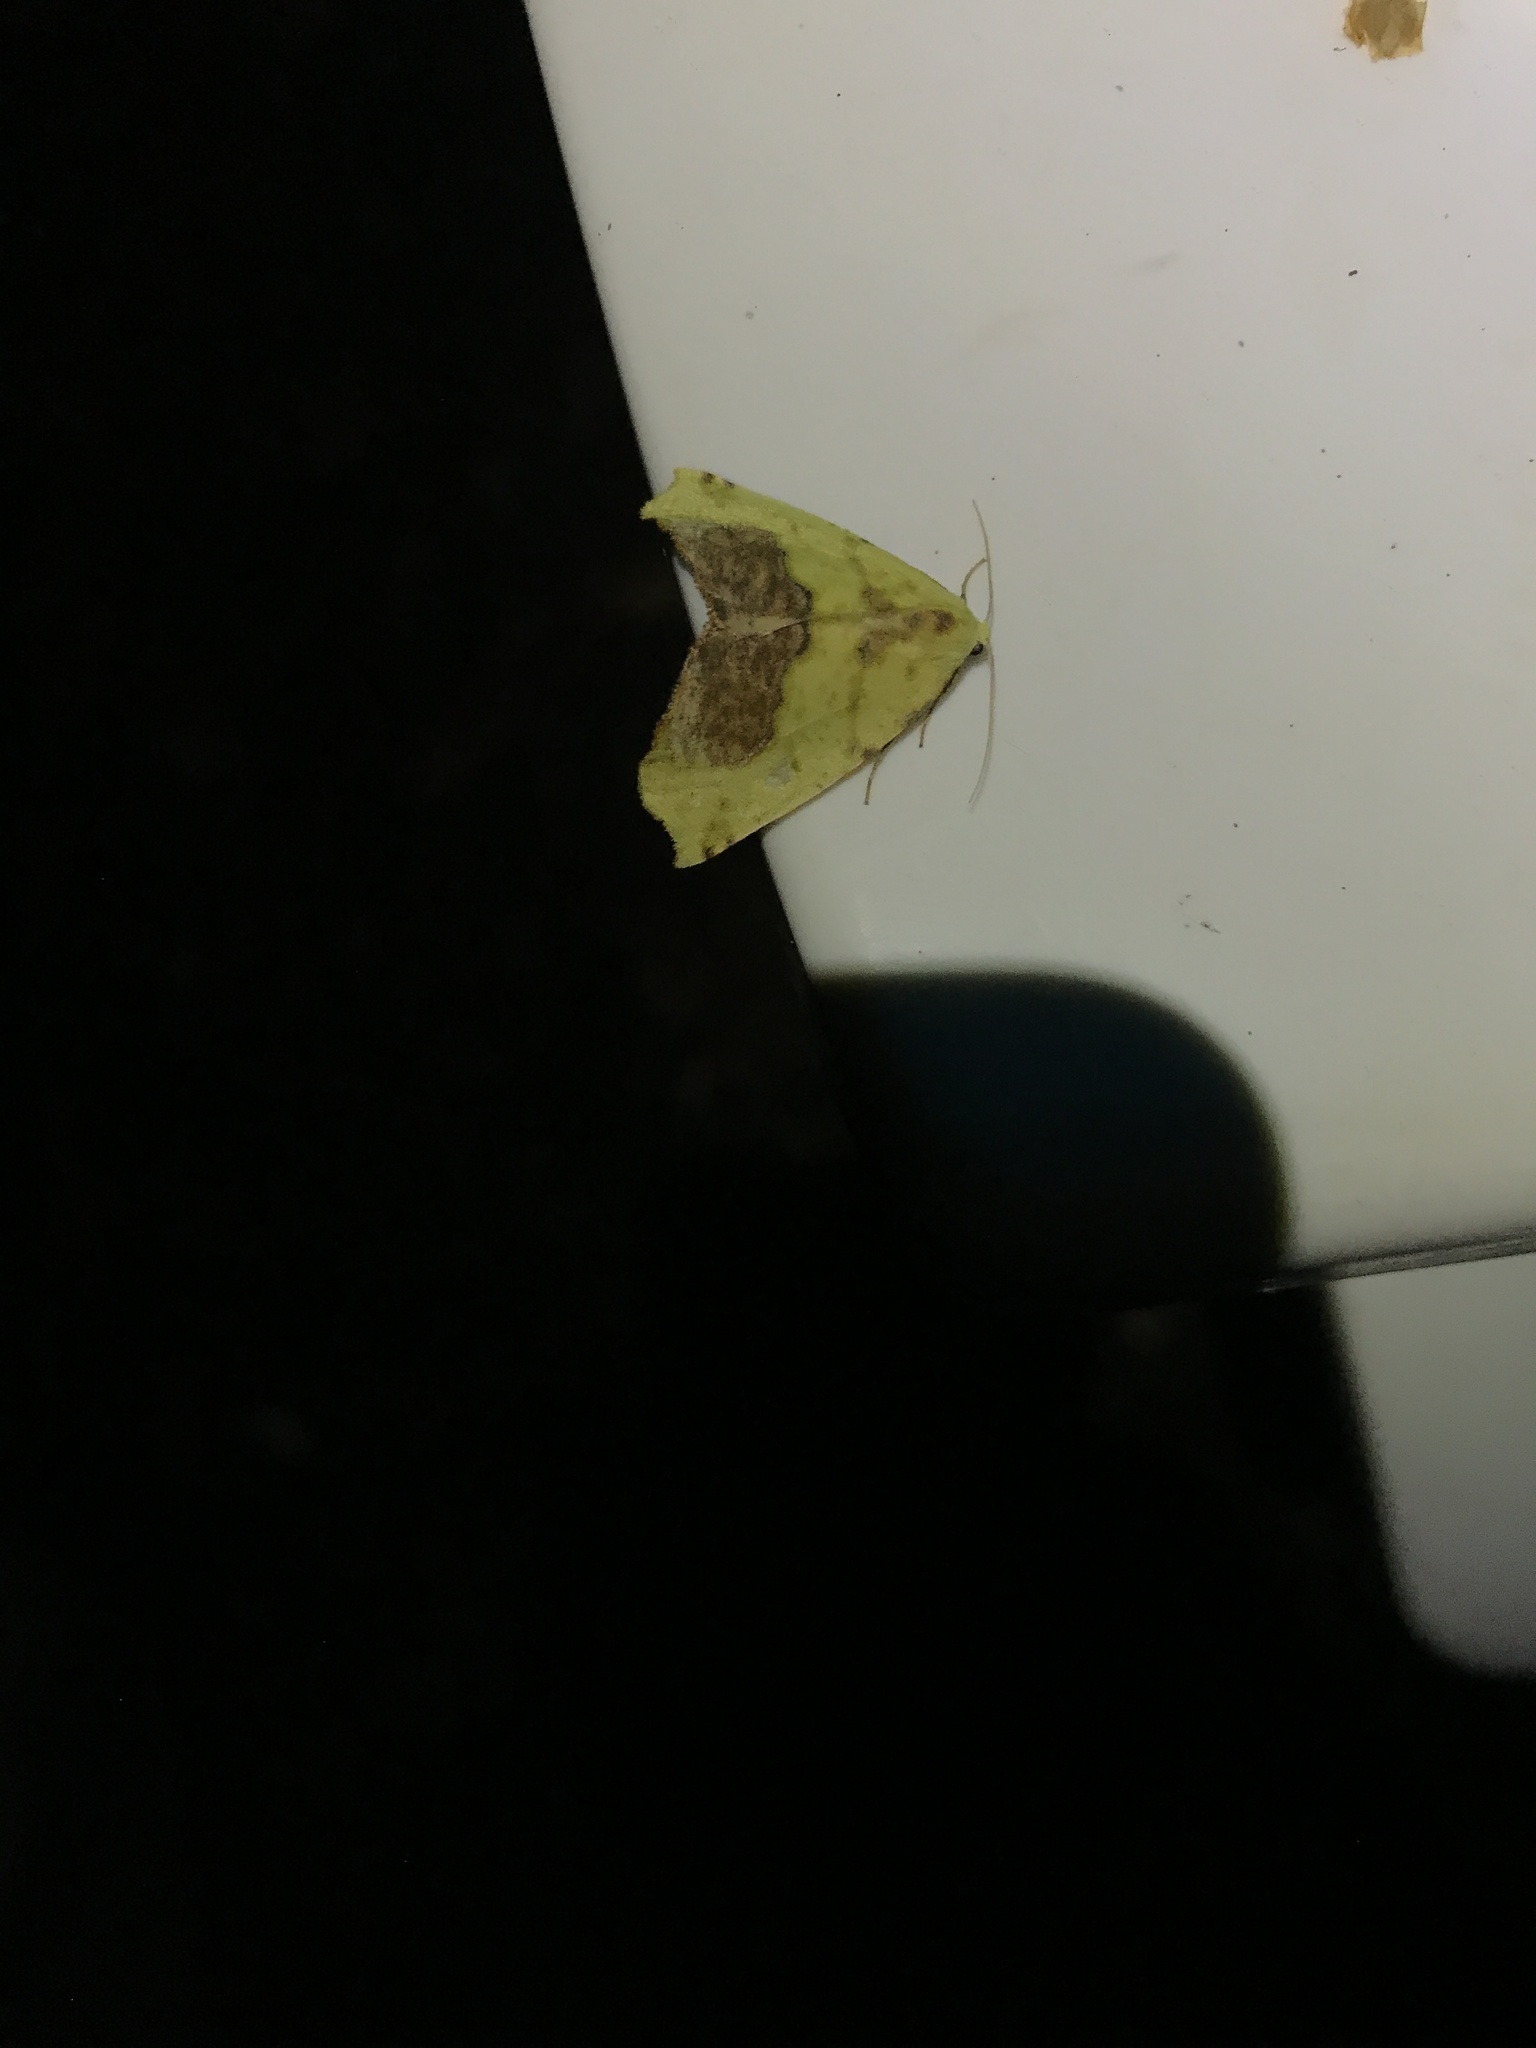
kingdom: Animalia
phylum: Arthropoda
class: Insecta
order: Lepidoptera
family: Geometridae
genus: Sicya
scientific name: Sicya macularia
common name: Sharp-lined yellow
